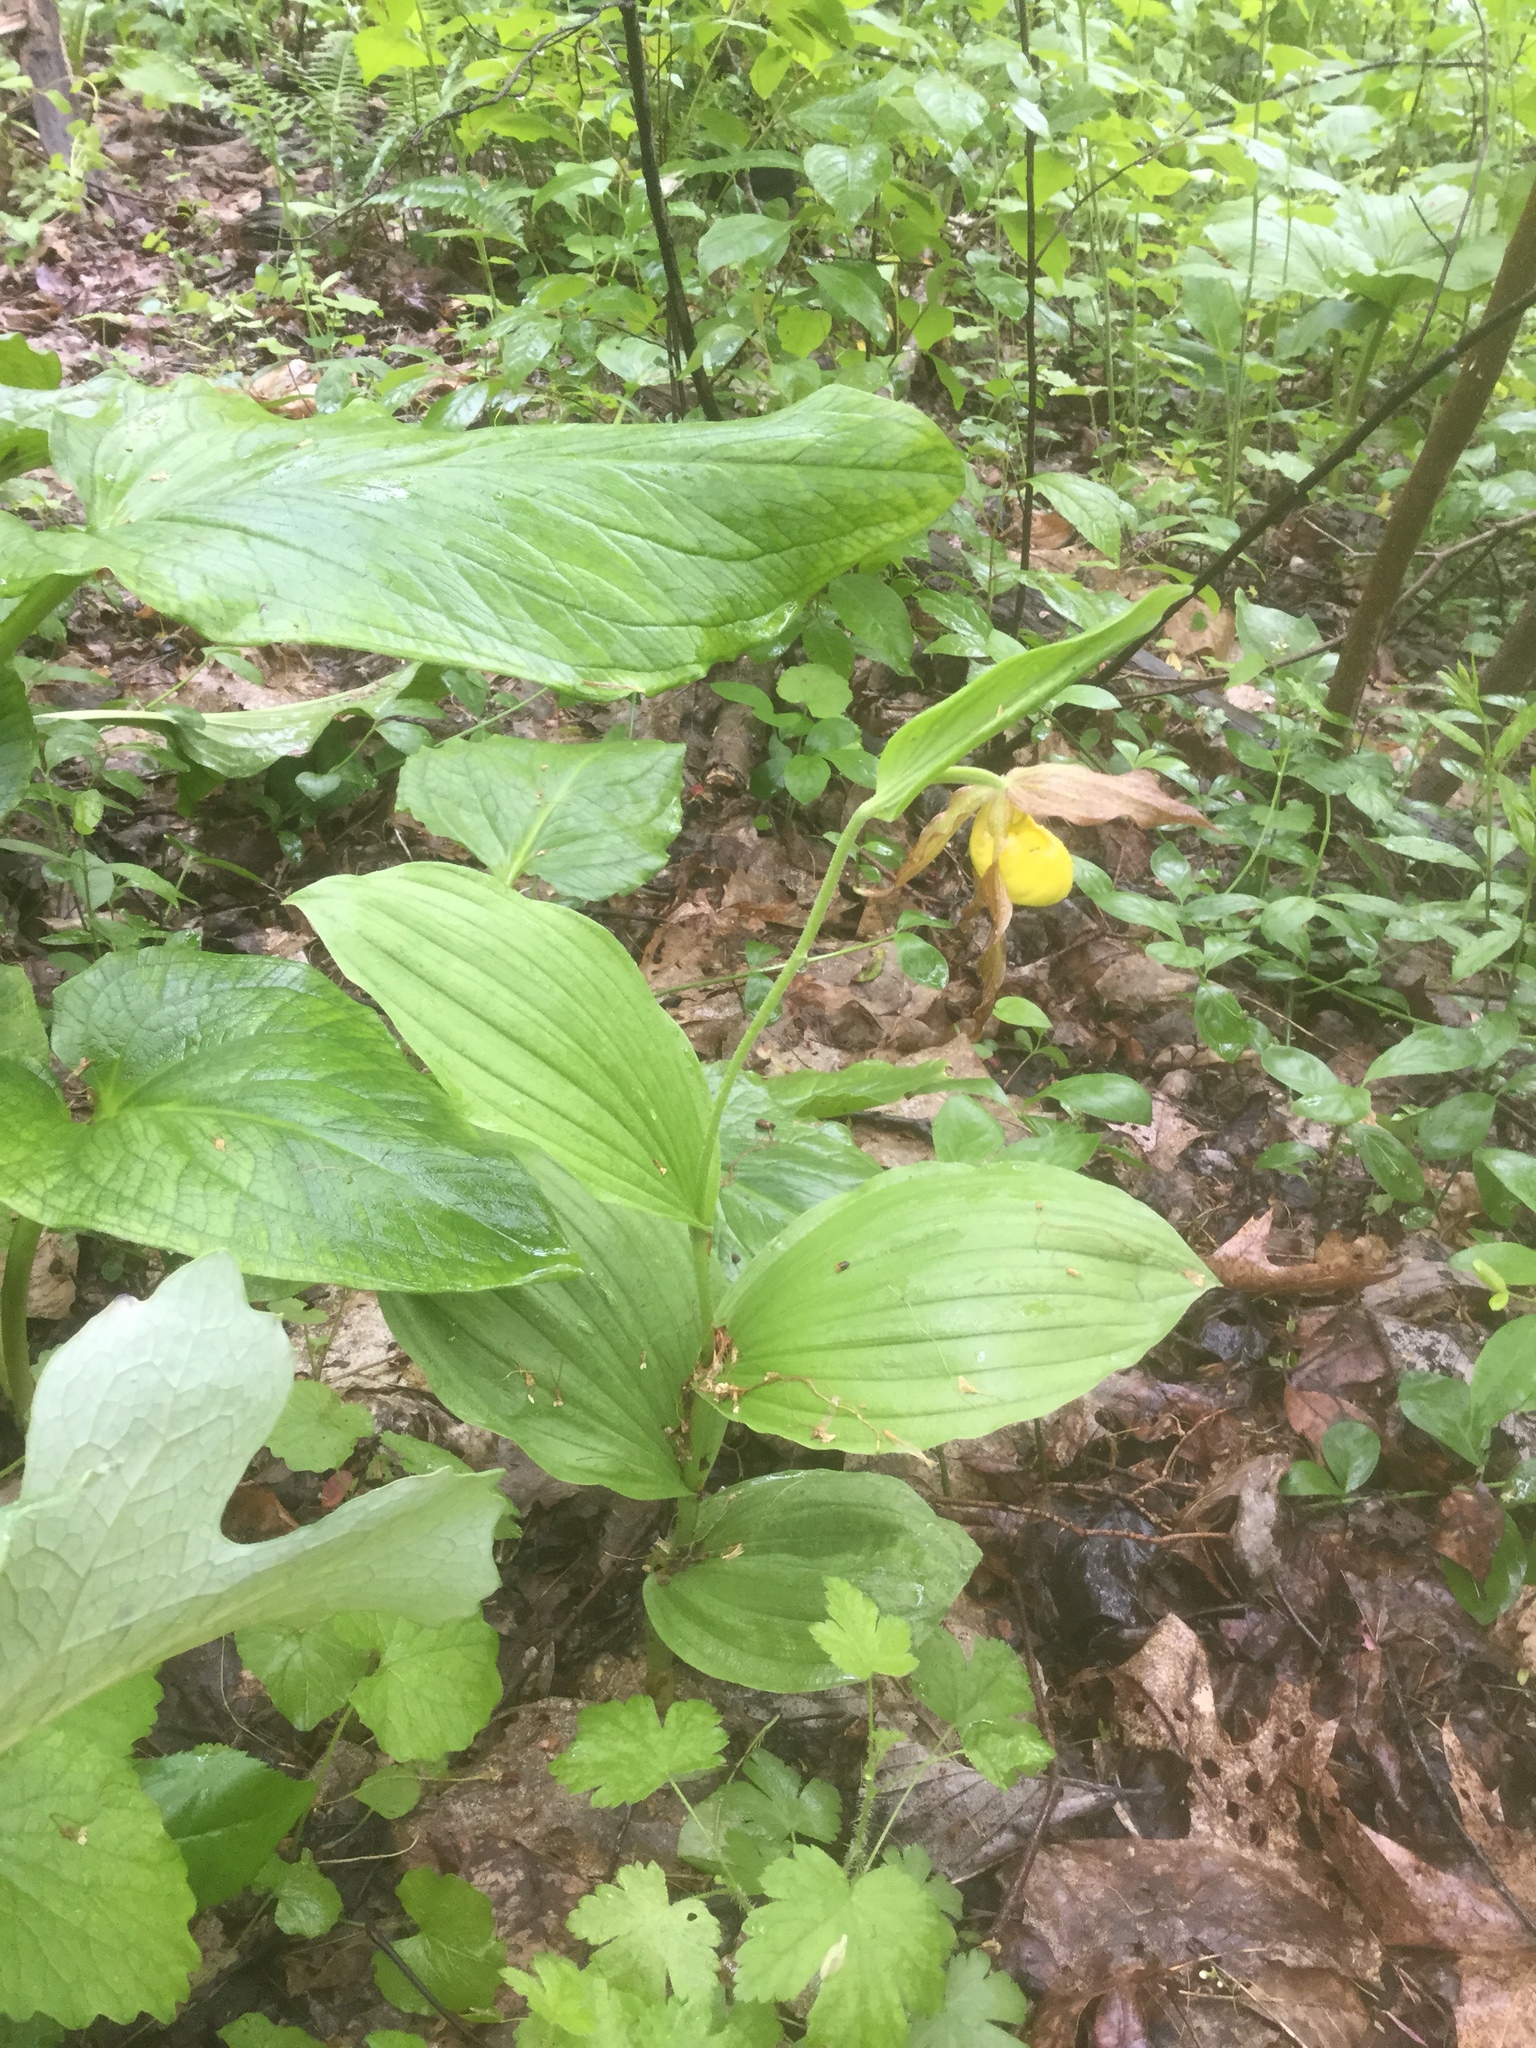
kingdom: Plantae
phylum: Tracheophyta
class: Liliopsida
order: Asparagales
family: Orchidaceae
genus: Cypripedium
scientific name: Cypripedium parviflorum
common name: American yellow lady's-slipper
